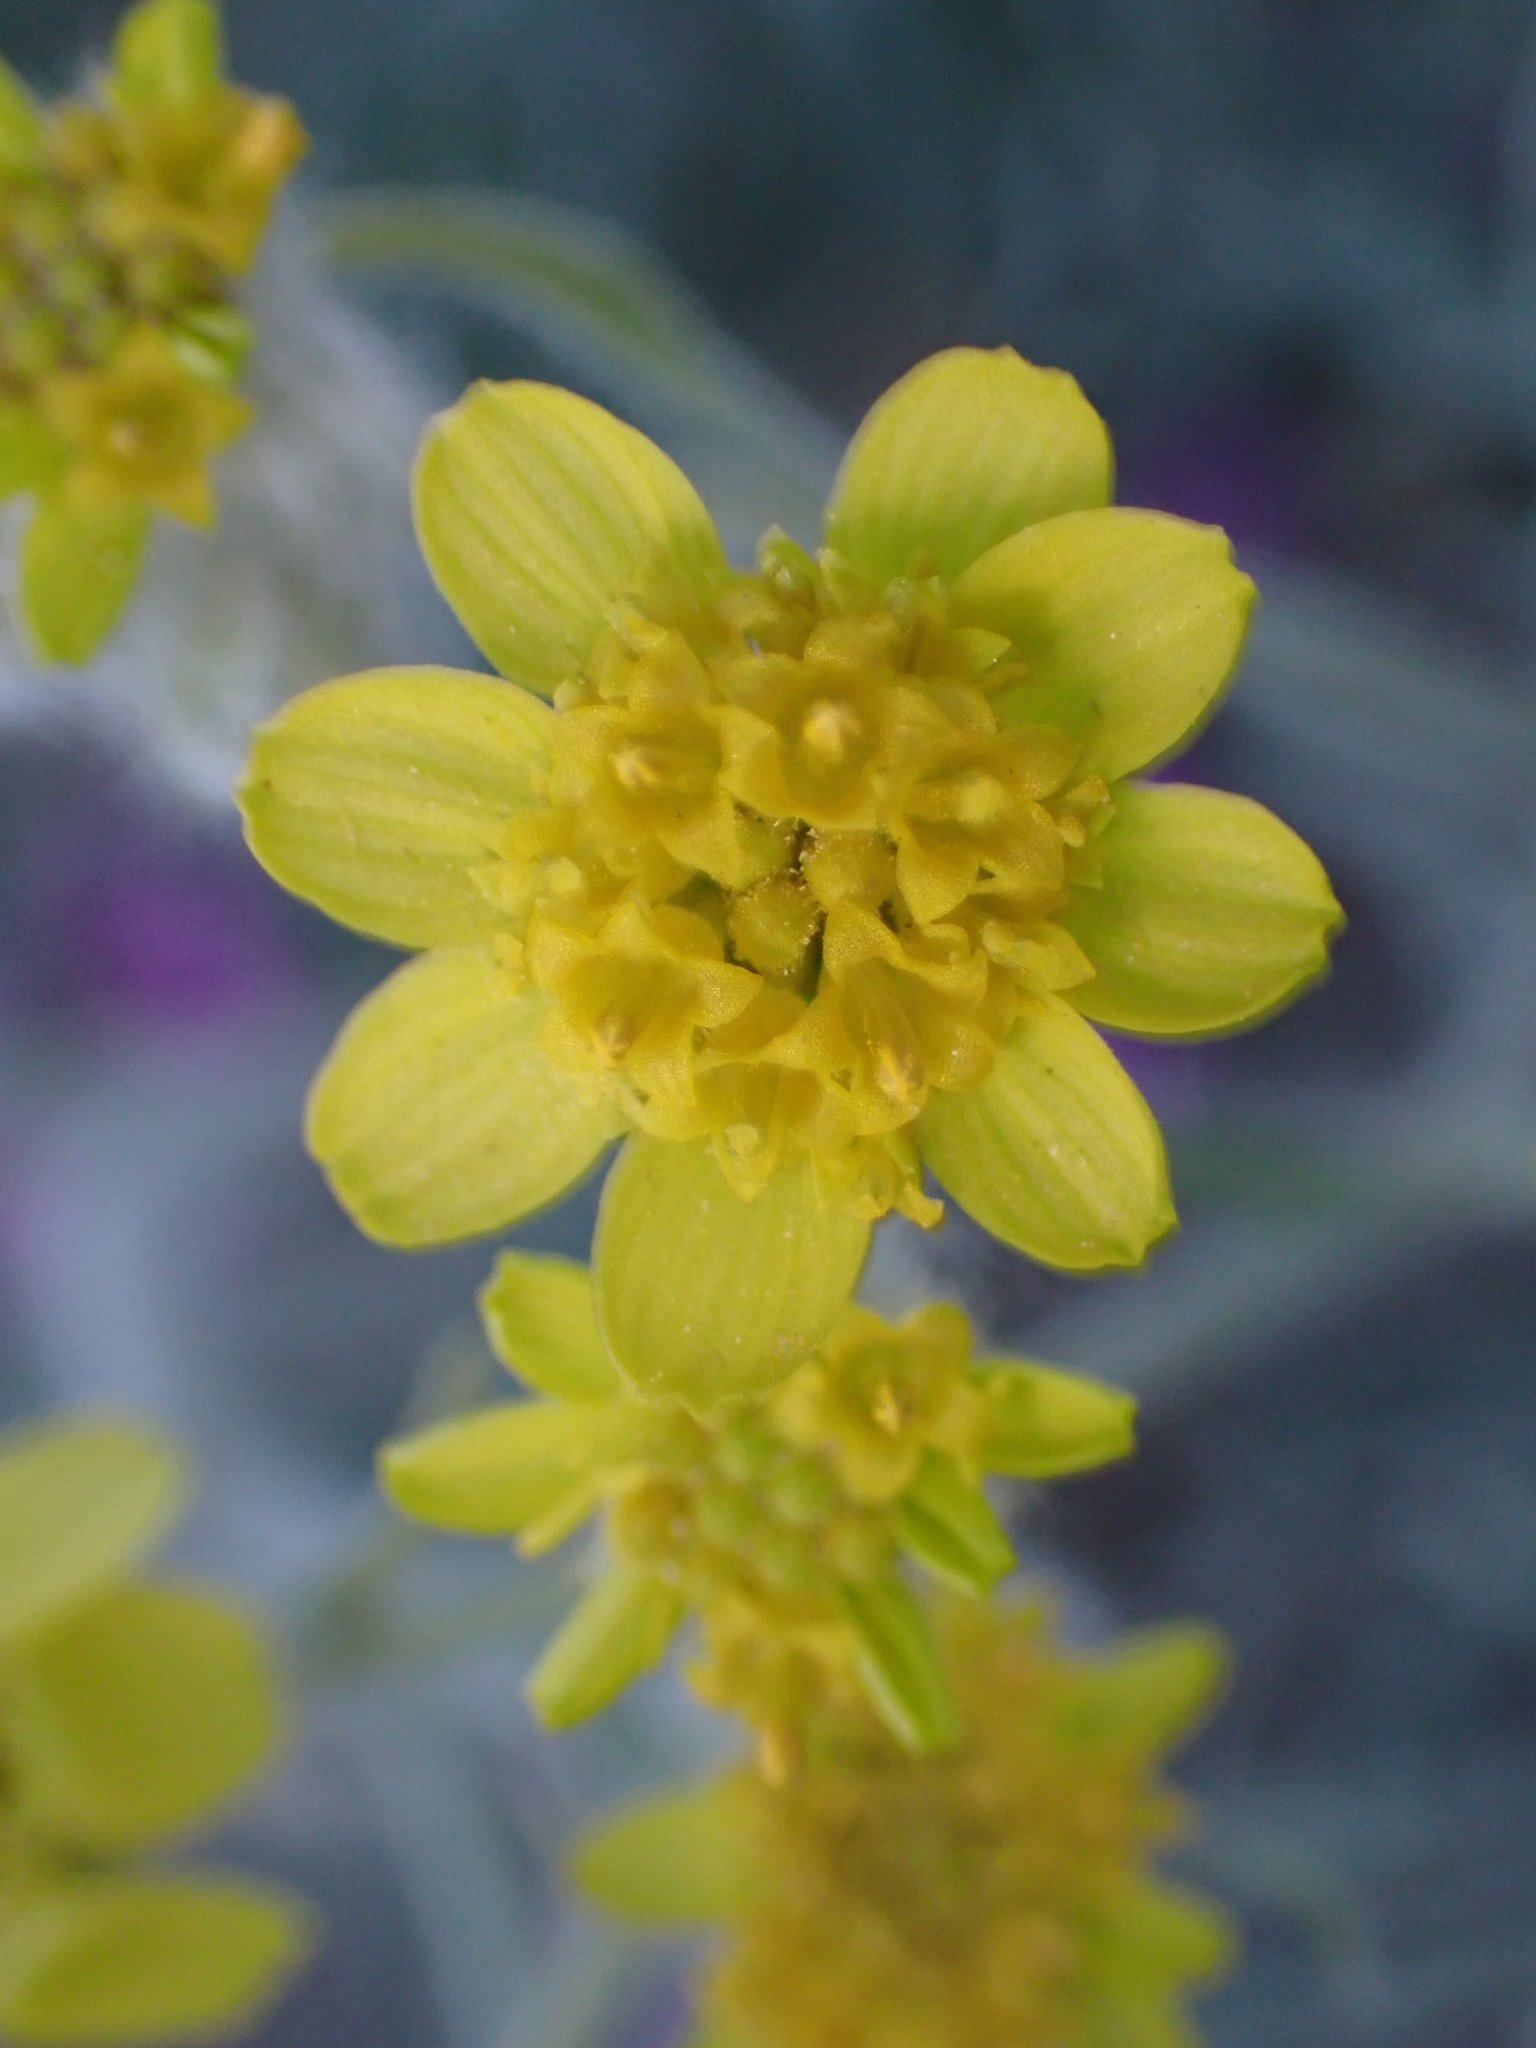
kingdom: Plantae
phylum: Tracheophyta
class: Magnoliopsida
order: Asterales
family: Asteraceae
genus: Baileya
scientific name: Baileya pauciradiata
